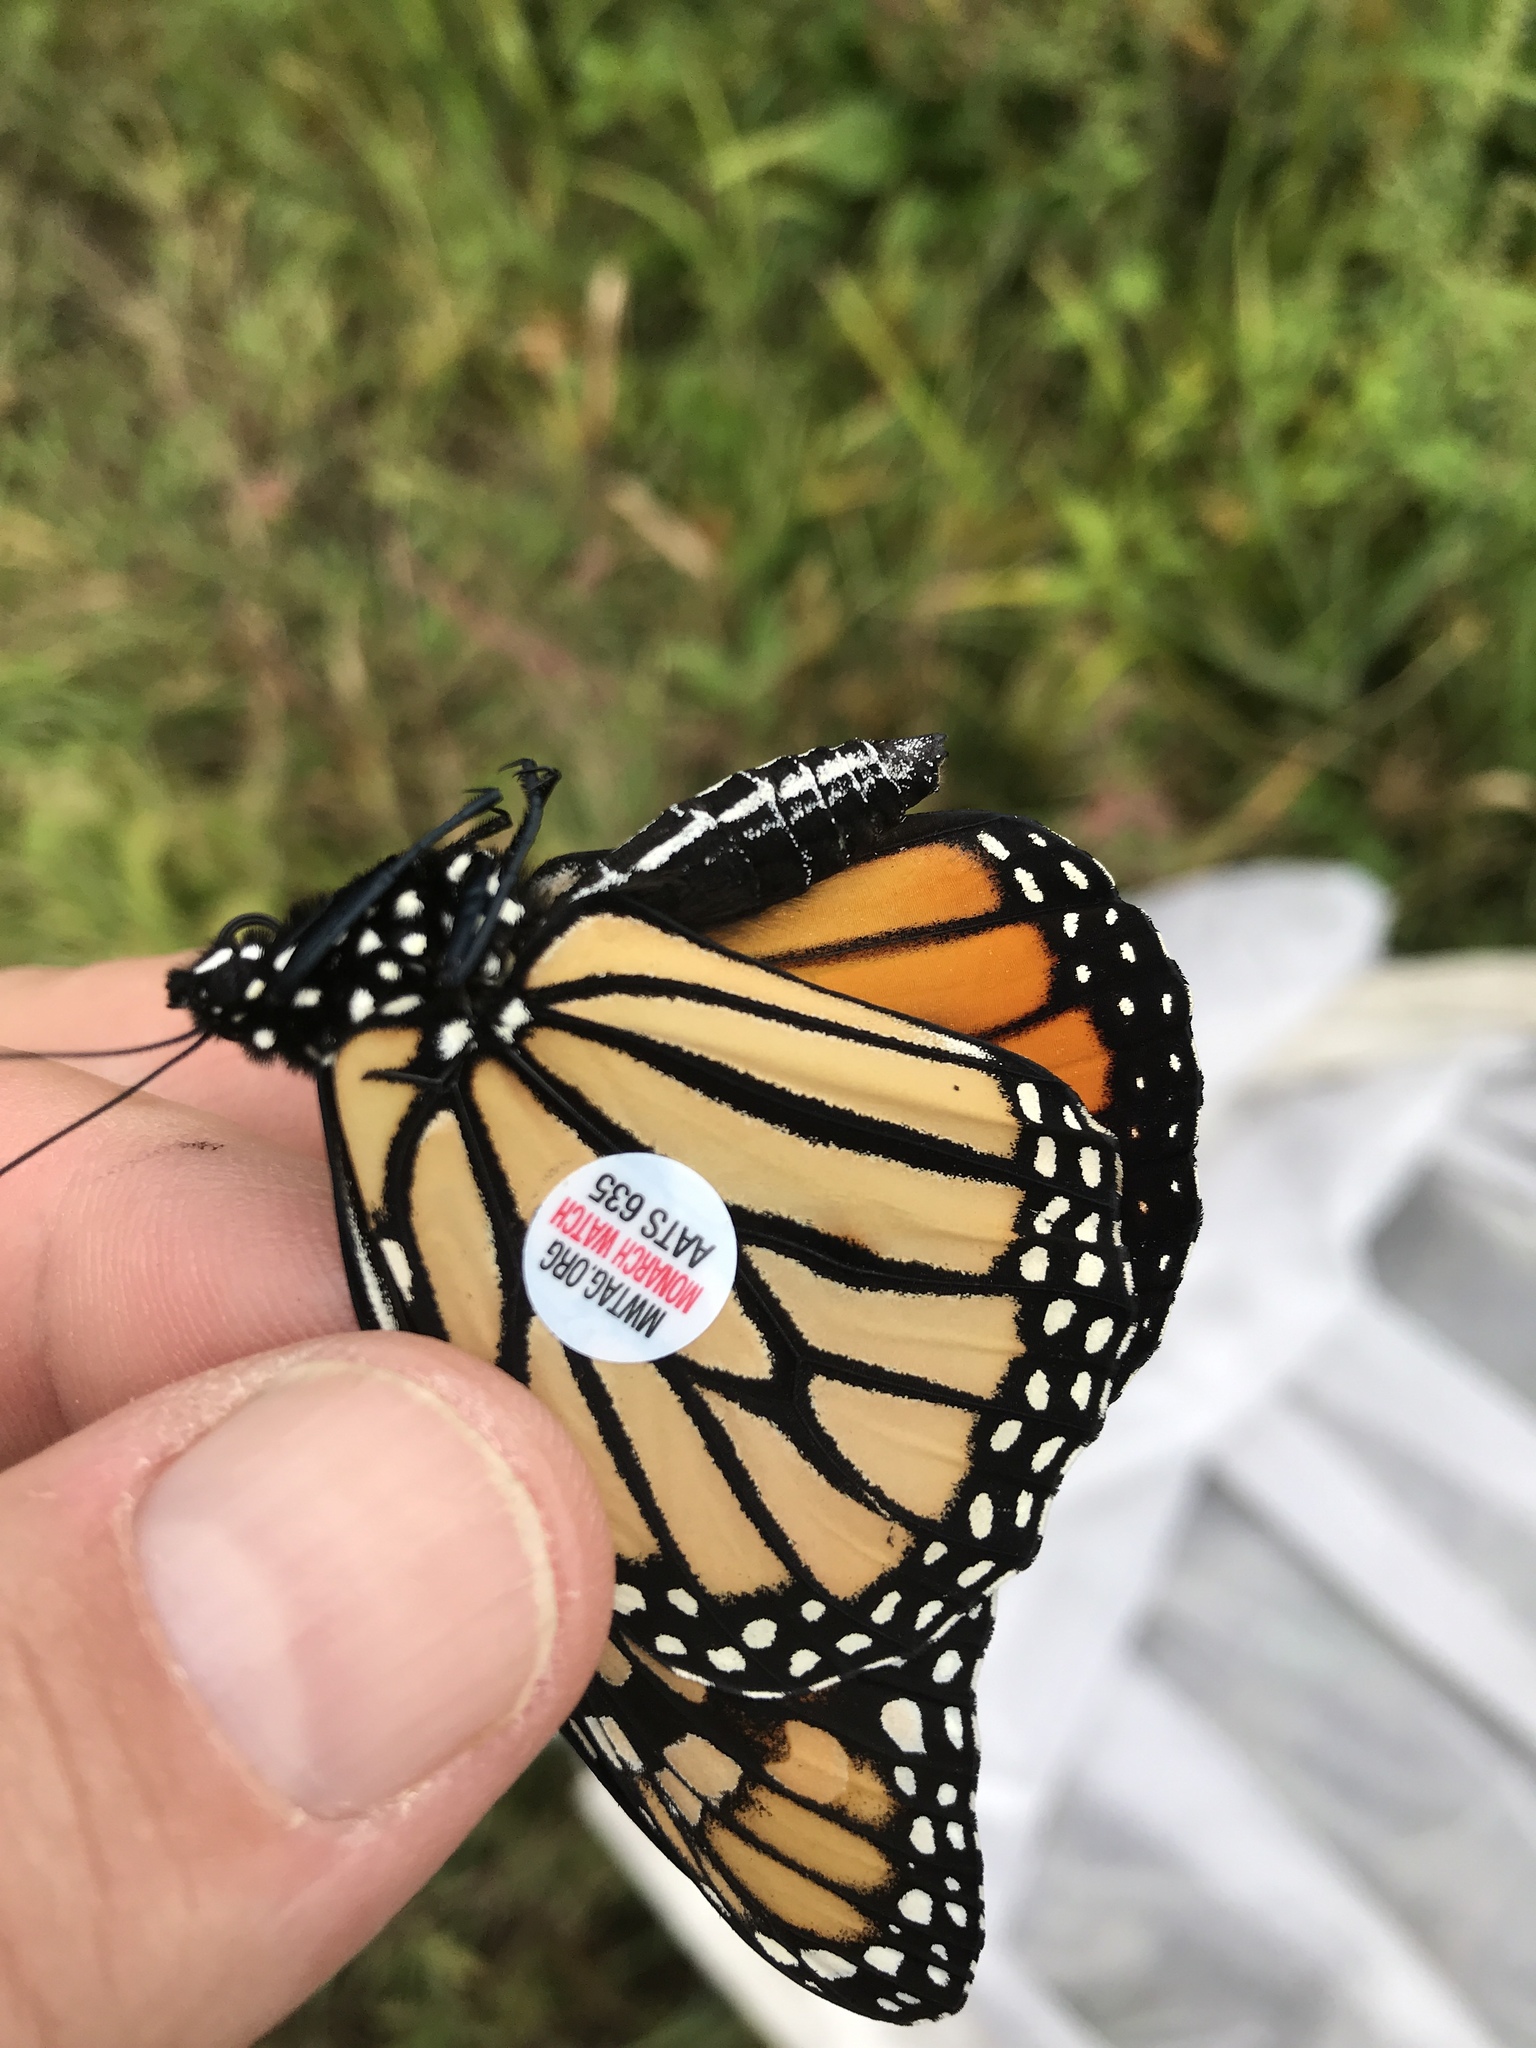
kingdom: Animalia
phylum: Arthropoda
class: Insecta
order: Lepidoptera
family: Nymphalidae
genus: Danaus
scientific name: Danaus plexippus
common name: Monarch
